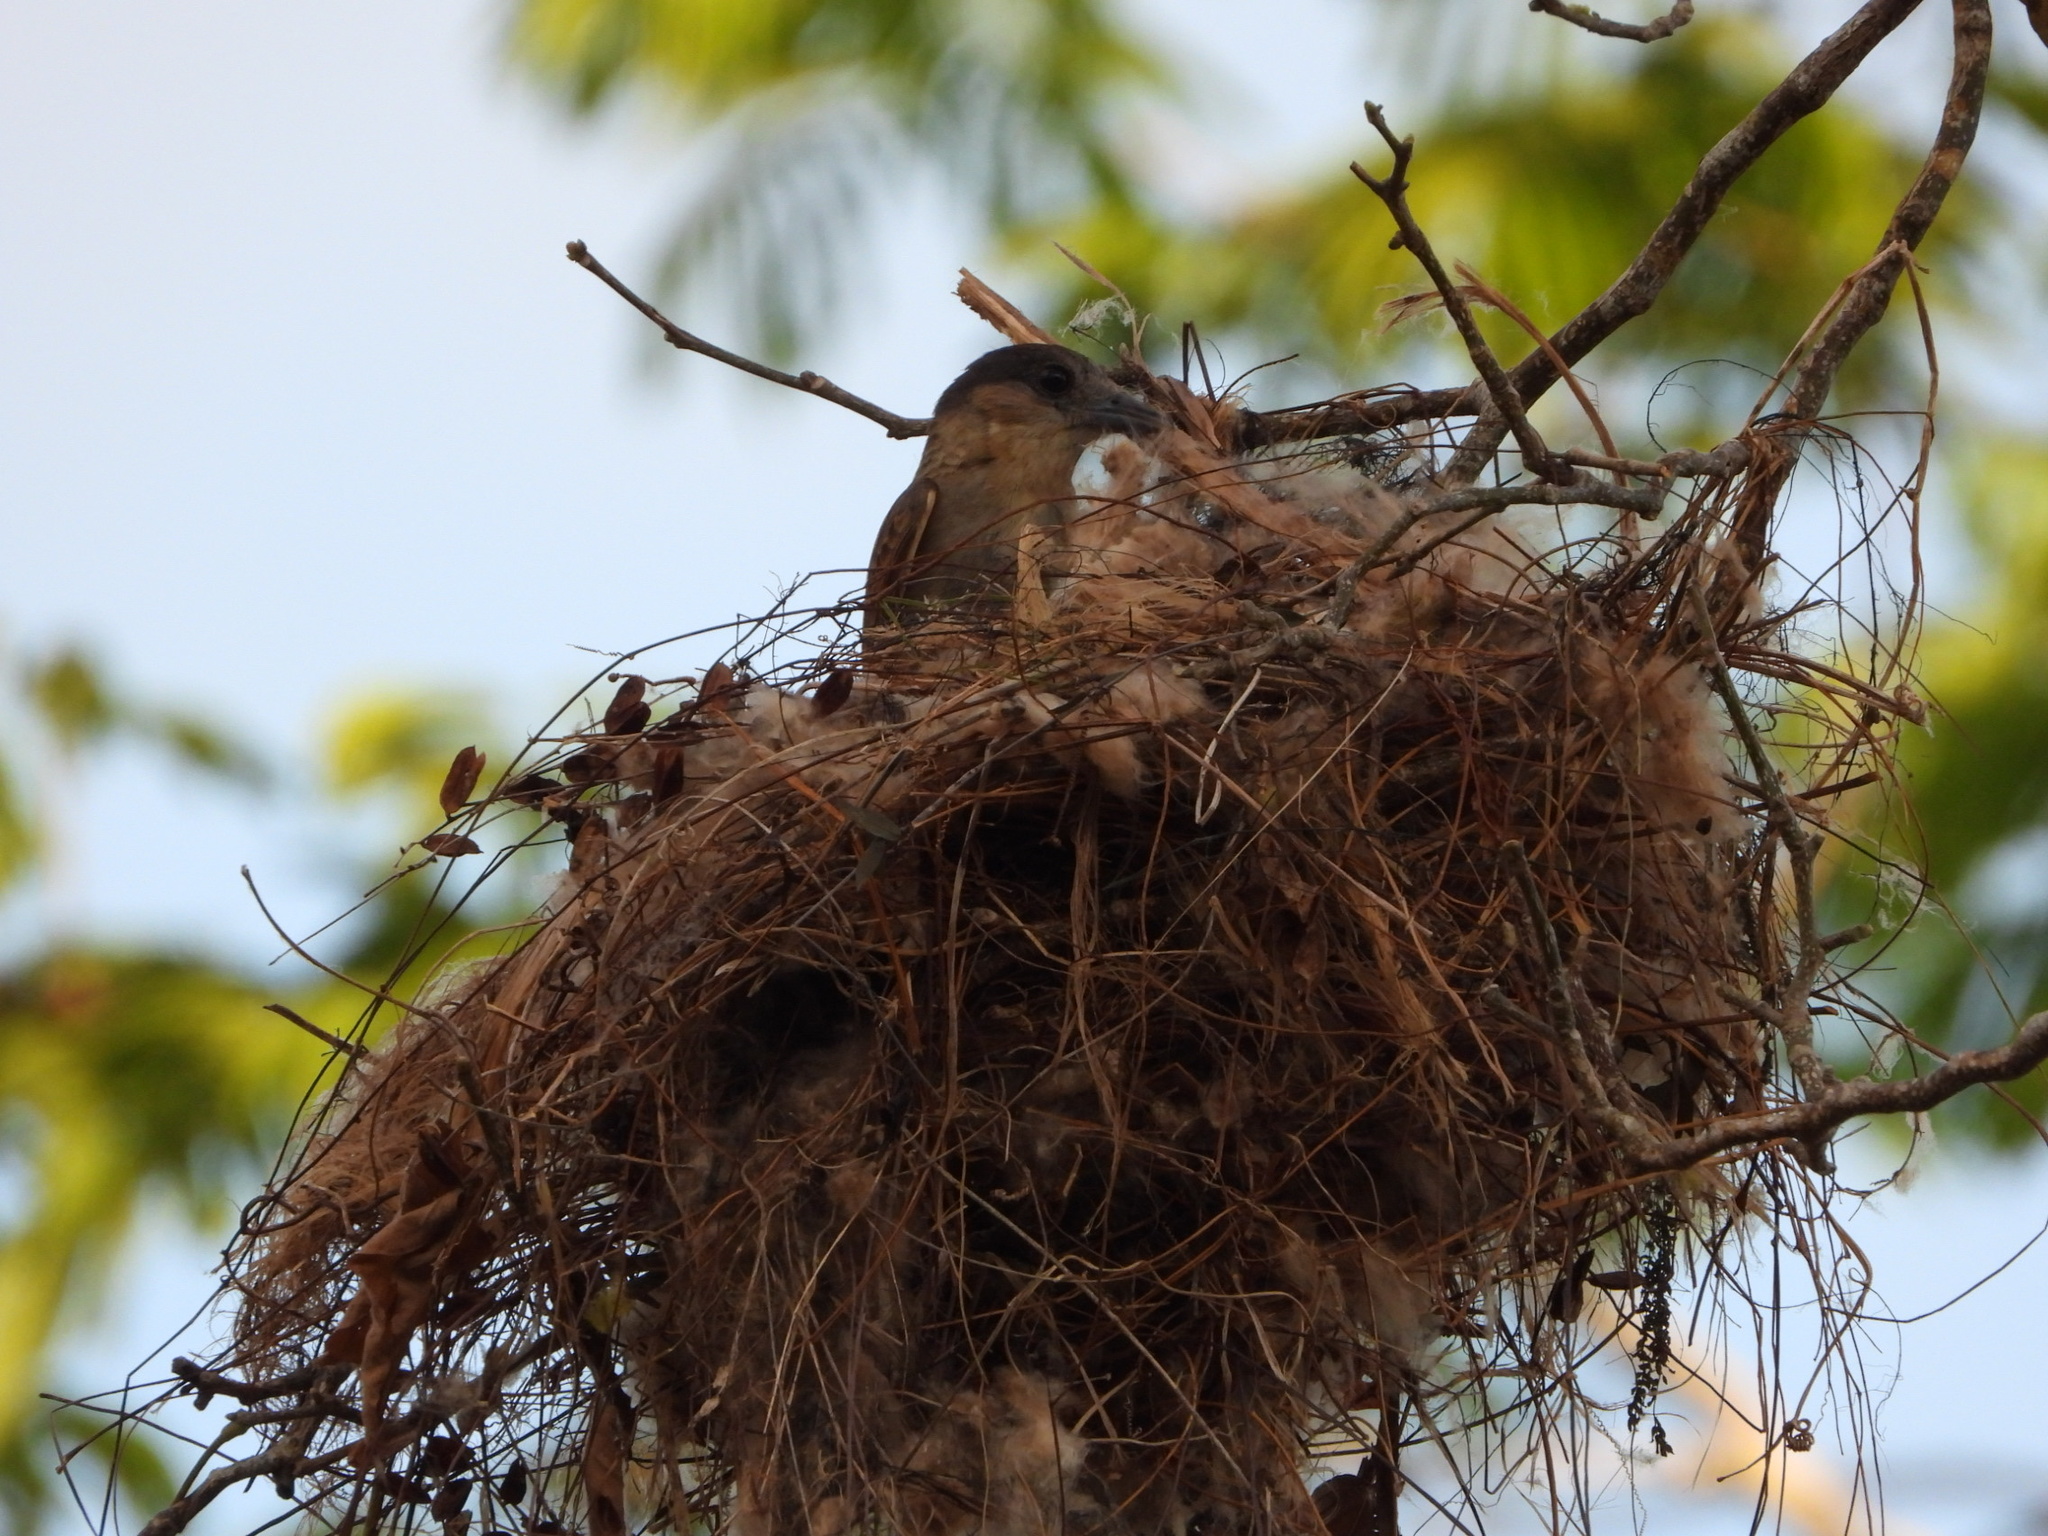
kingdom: Animalia
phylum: Chordata
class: Aves
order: Passeriformes
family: Cotingidae
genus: Pachyramphus
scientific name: Pachyramphus aglaiae
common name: Rose-throated becard
